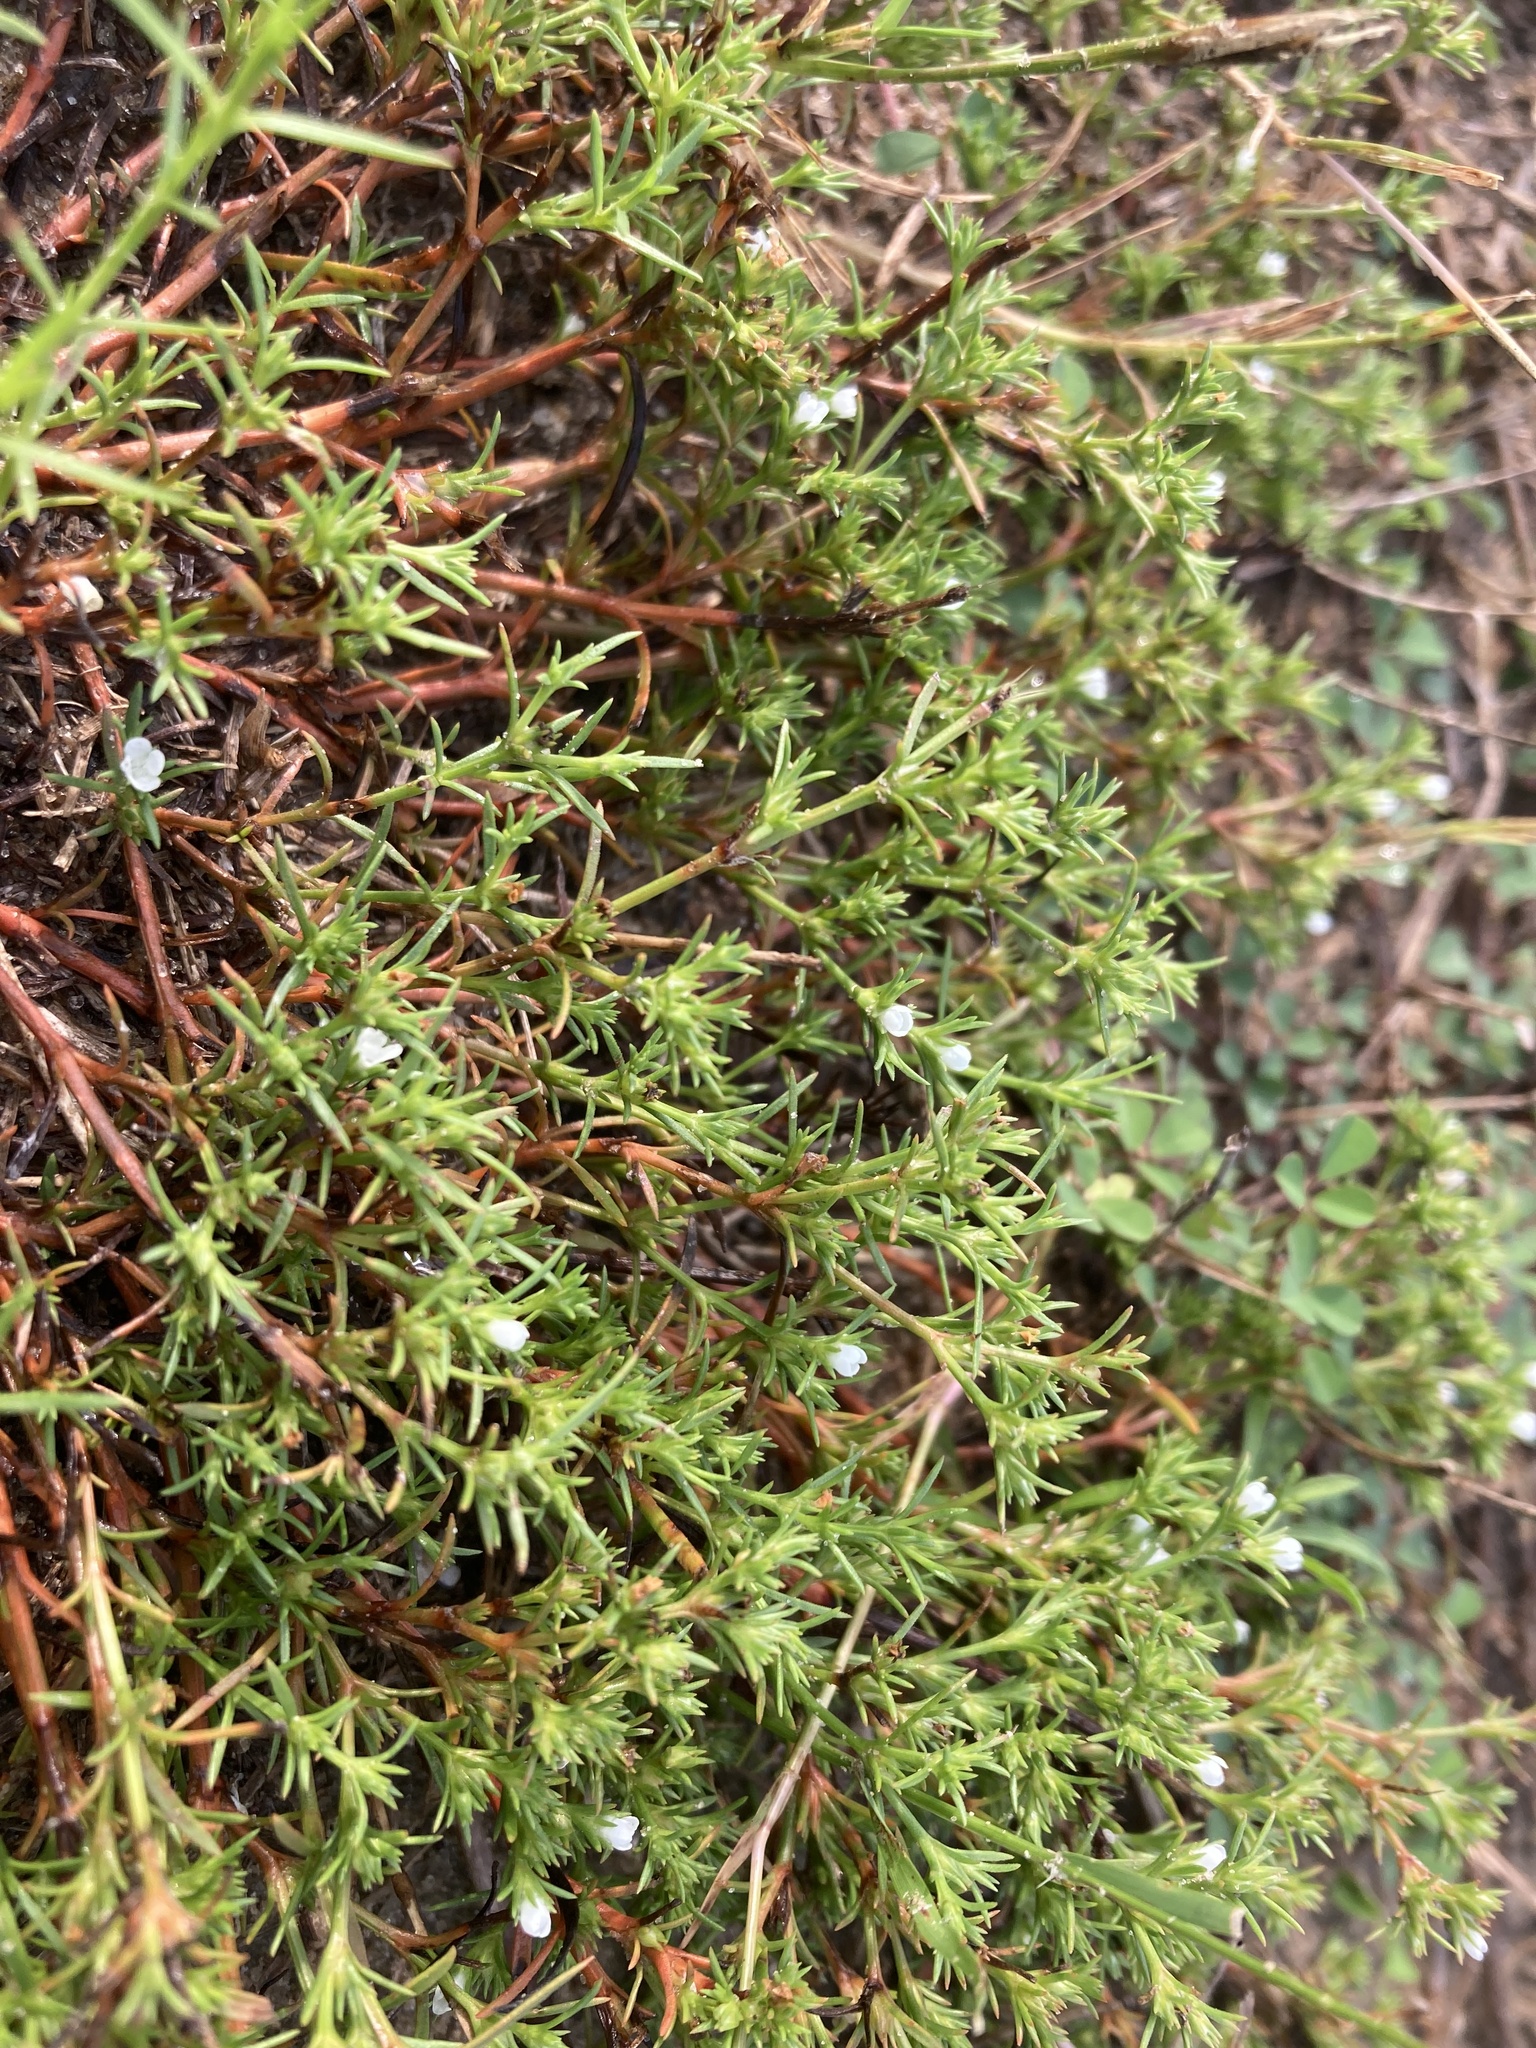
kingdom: Plantae
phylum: Tracheophyta
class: Magnoliopsida
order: Lamiales
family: Tetrachondraceae
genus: Polypremum
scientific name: Polypremum procumbens
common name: Juniper-leaf
